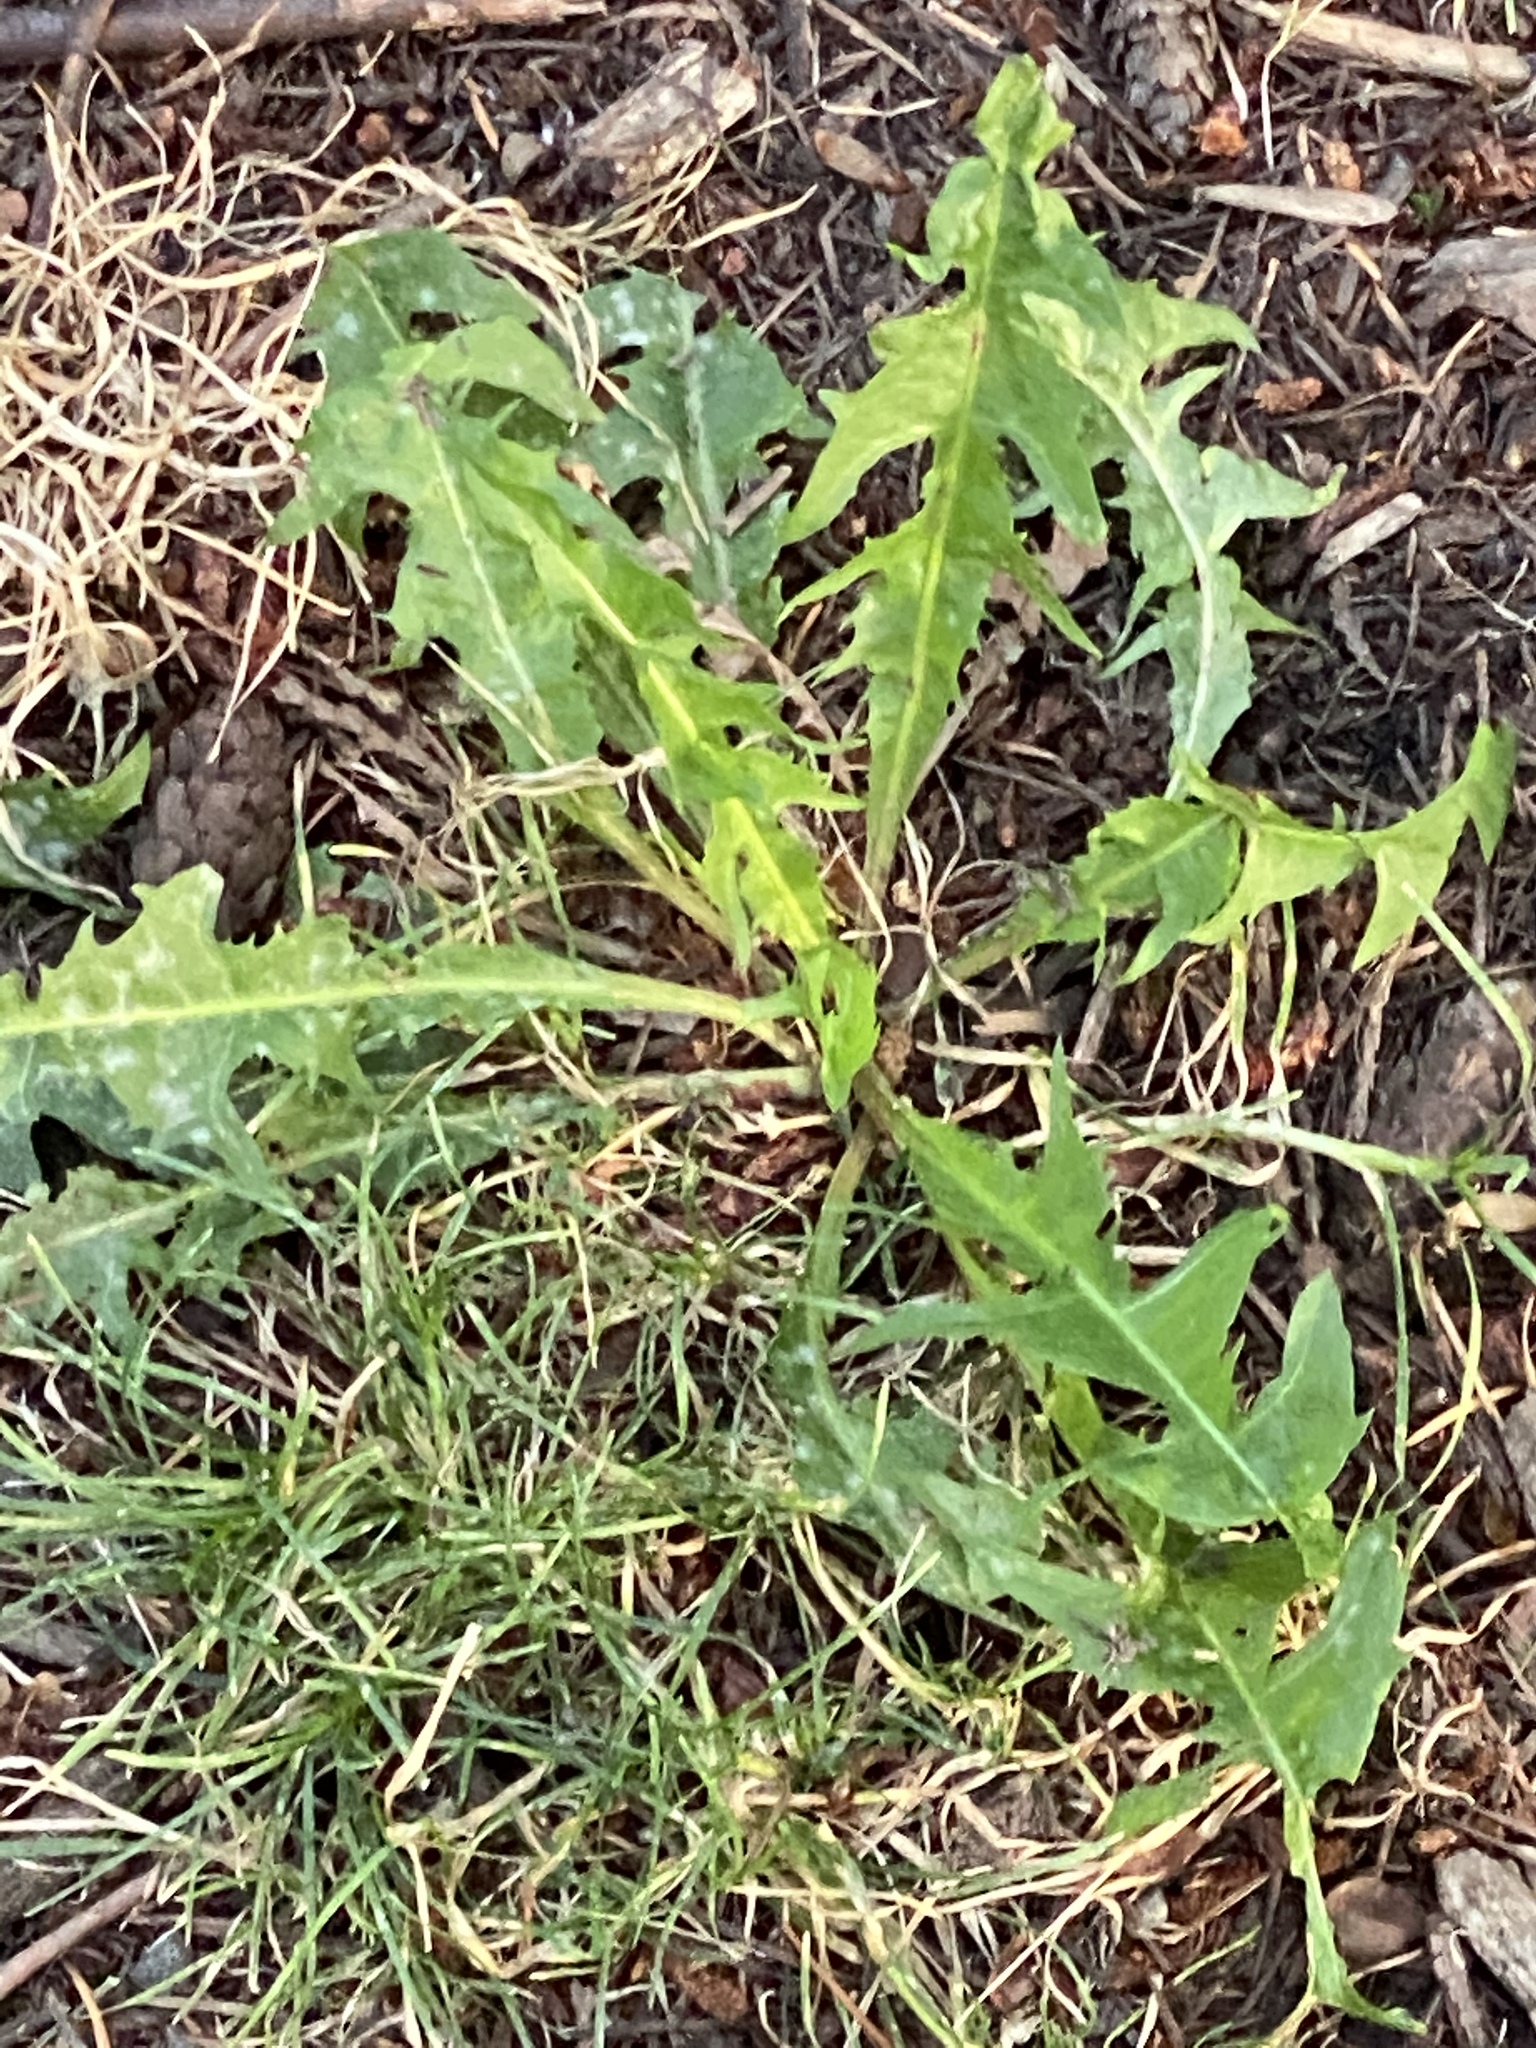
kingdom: Plantae
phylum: Tracheophyta
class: Magnoliopsida
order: Asterales
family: Asteraceae
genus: Taraxacum
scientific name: Taraxacum officinale
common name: Common dandelion
